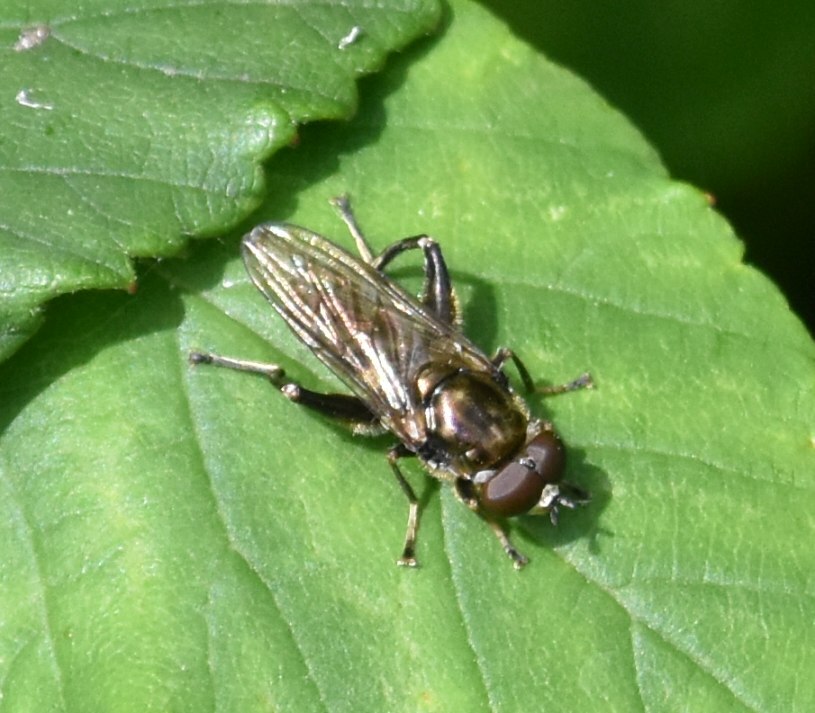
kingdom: Animalia
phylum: Arthropoda
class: Insecta
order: Diptera
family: Syrphidae
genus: Chalcosyrphus
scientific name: Chalcosyrphus nemorum
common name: Dusky-banded forest fly
